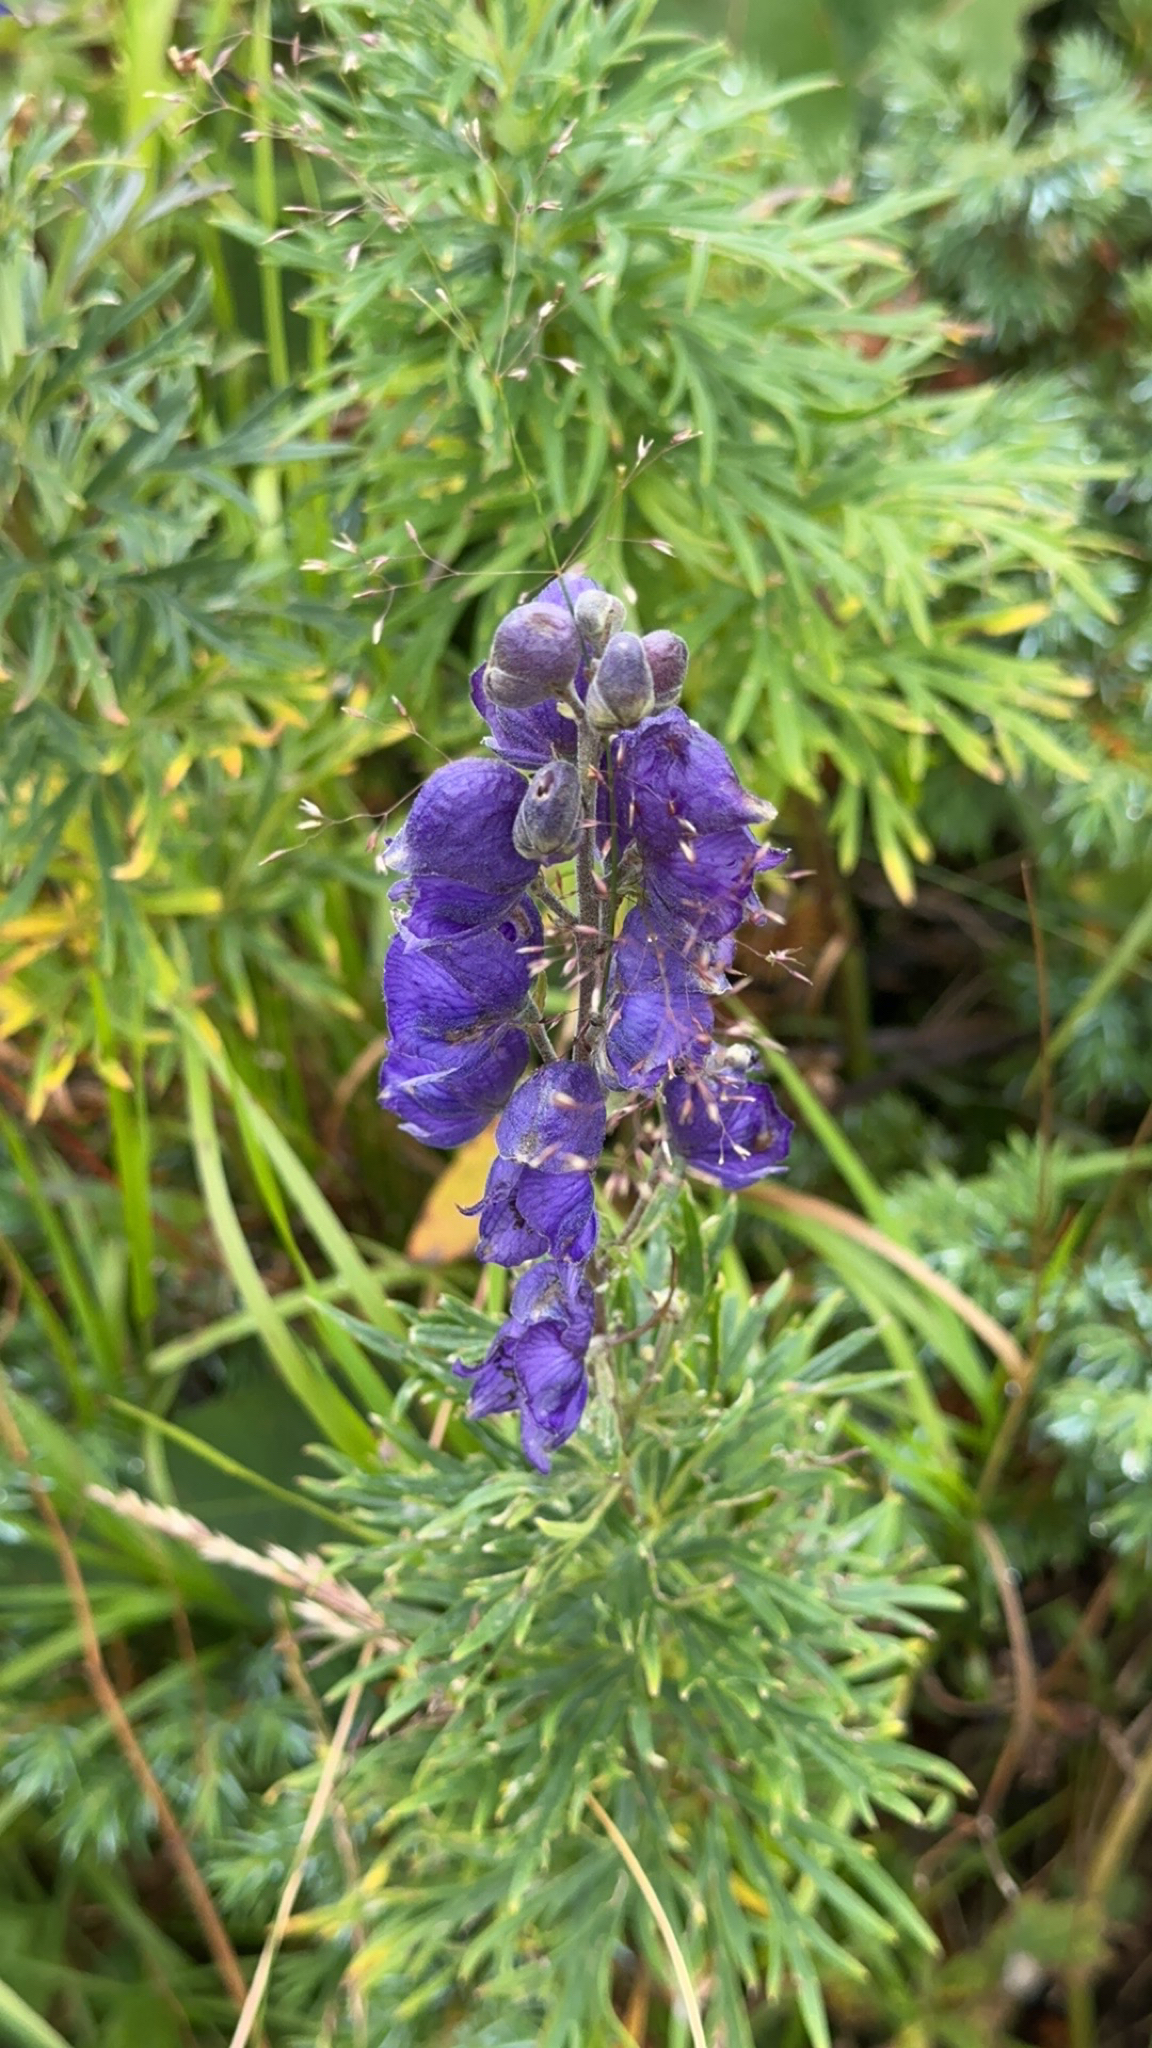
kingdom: Plantae
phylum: Tracheophyta
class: Magnoliopsida
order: Ranunculales
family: Ranunculaceae
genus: Aconitum
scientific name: Aconitum napellus
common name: Garden monkshood
